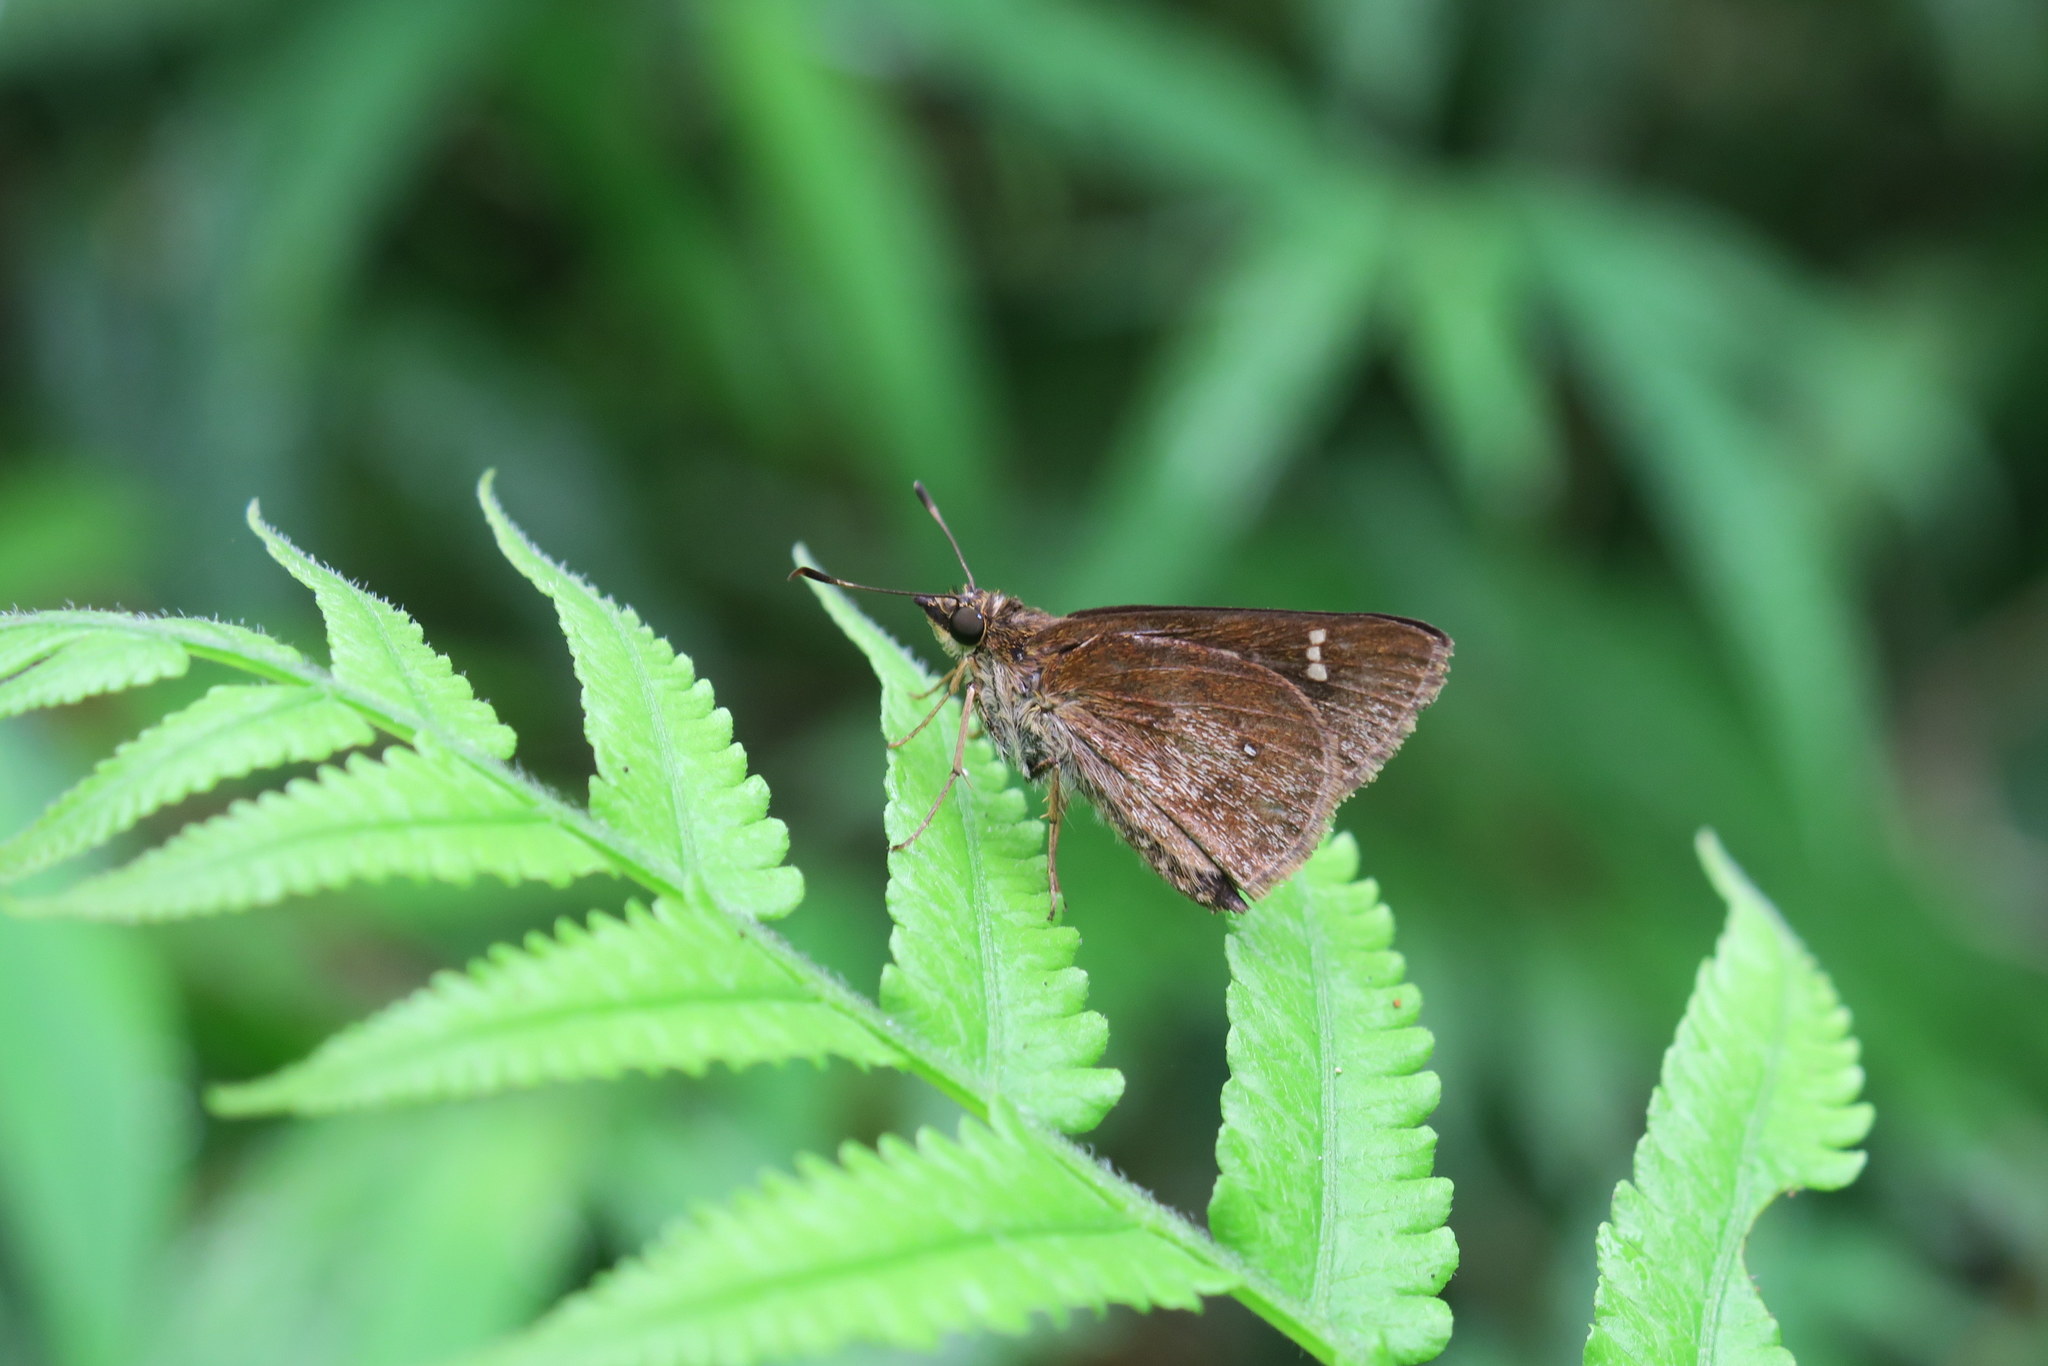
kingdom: Animalia
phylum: Arthropoda
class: Insecta
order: Lepidoptera
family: Hesperiidae
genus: Astictopterus
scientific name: Astictopterus jama
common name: Forest hopper
